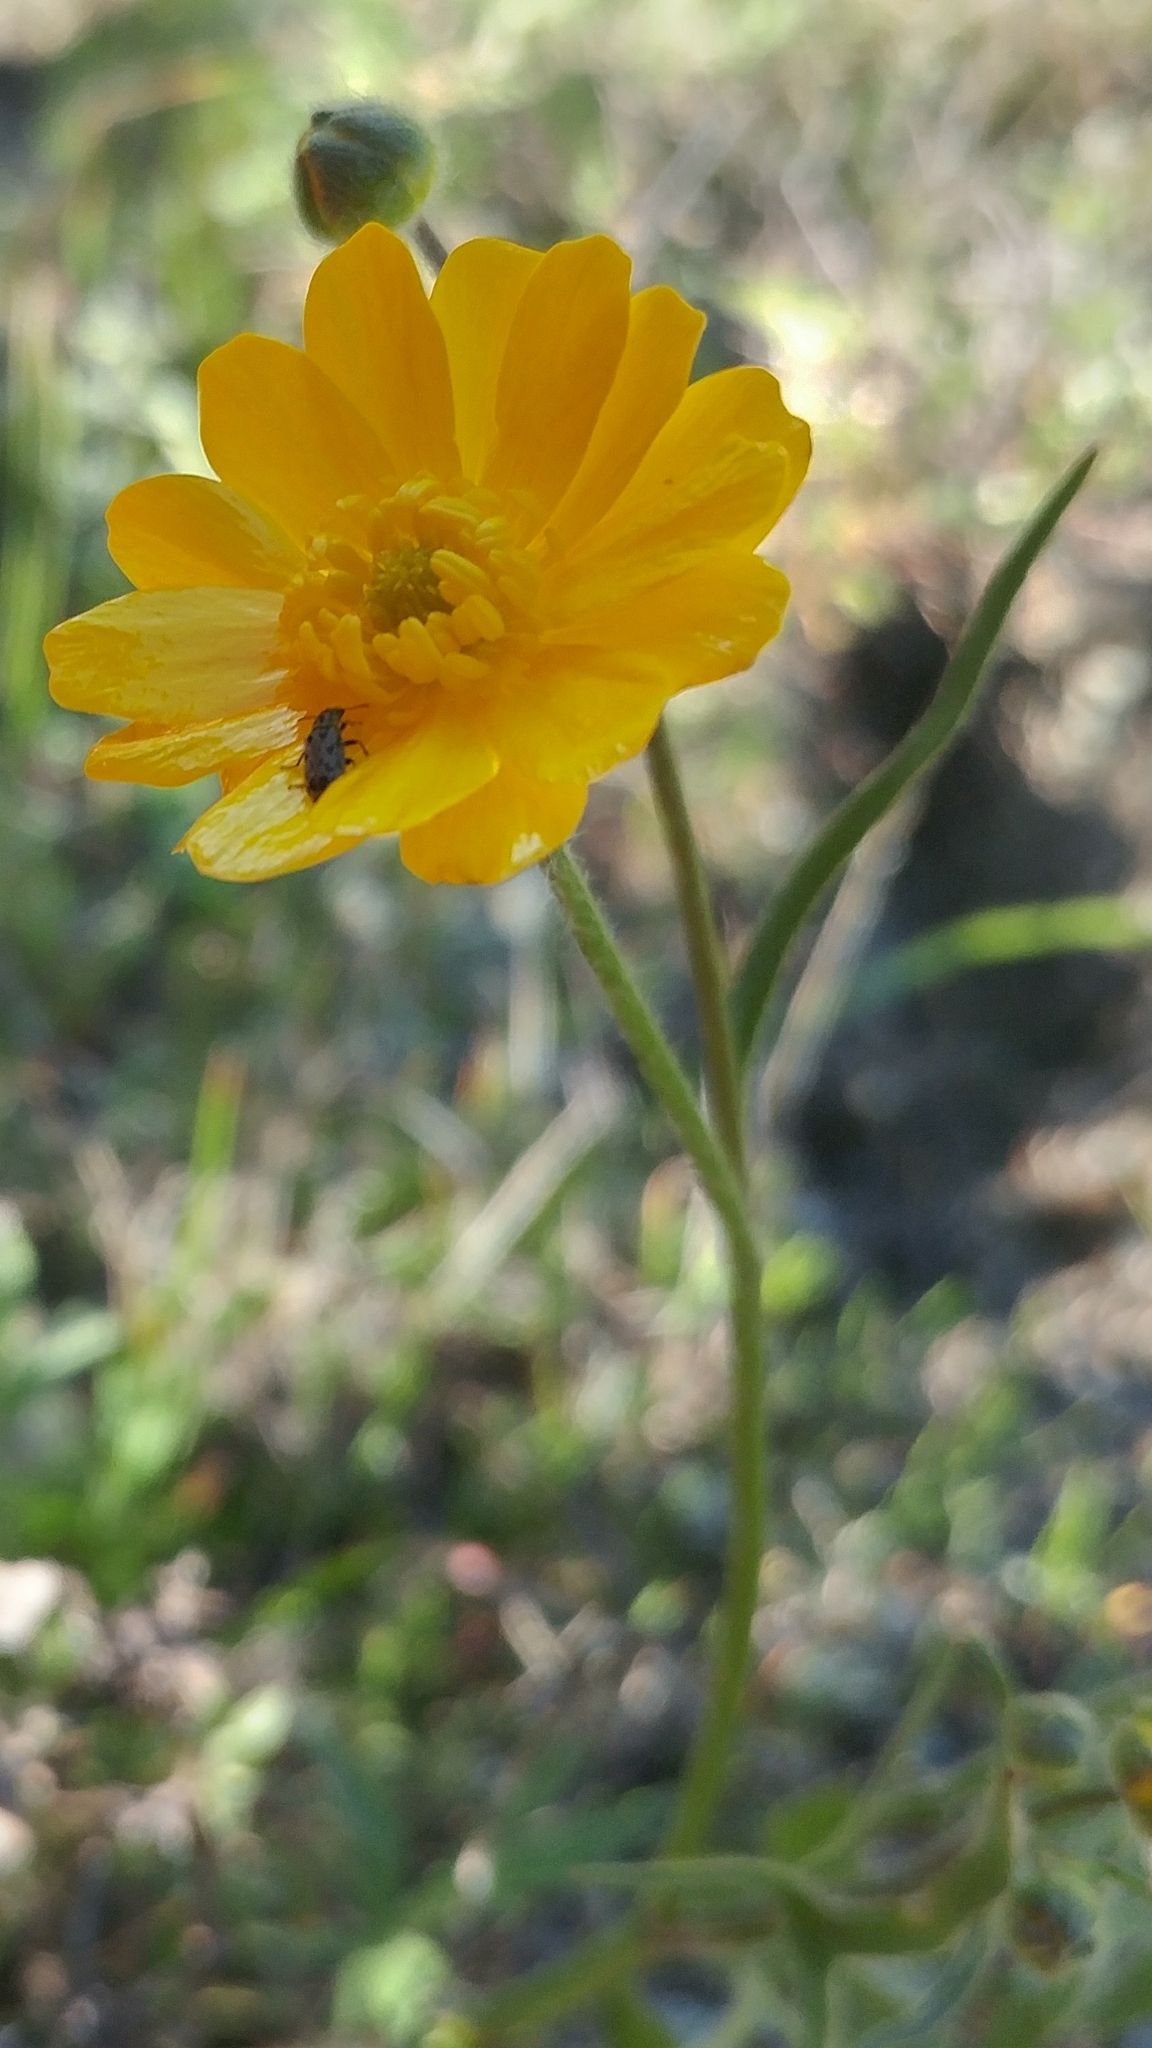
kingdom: Plantae
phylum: Tracheophyta
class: Magnoliopsida
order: Ranunculales
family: Ranunculaceae
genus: Ranunculus
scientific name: Ranunculus californicus
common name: California buttercup
